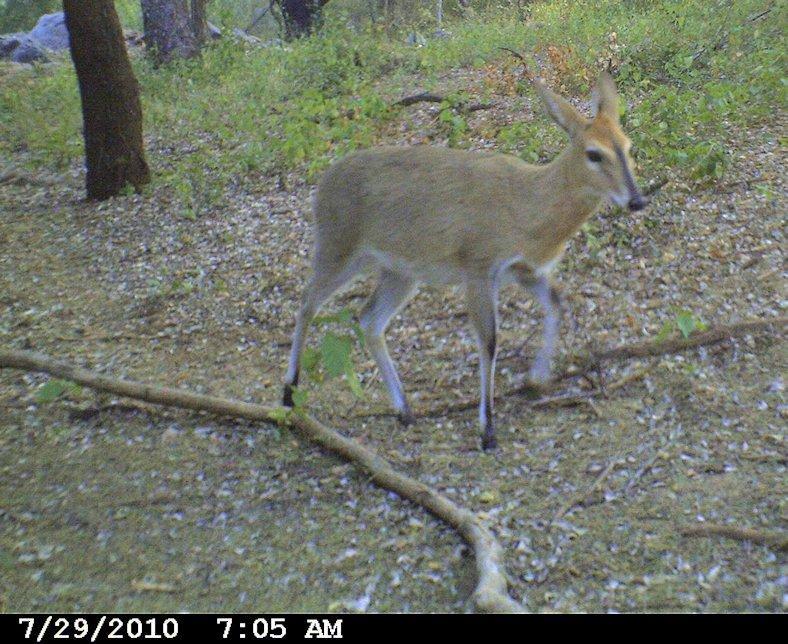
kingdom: Animalia
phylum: Chordata
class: Mammalia
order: Artiodactyla
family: Bovidae
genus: Sylvicapra
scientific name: Sylvicapra grimmia
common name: Bush duiker
